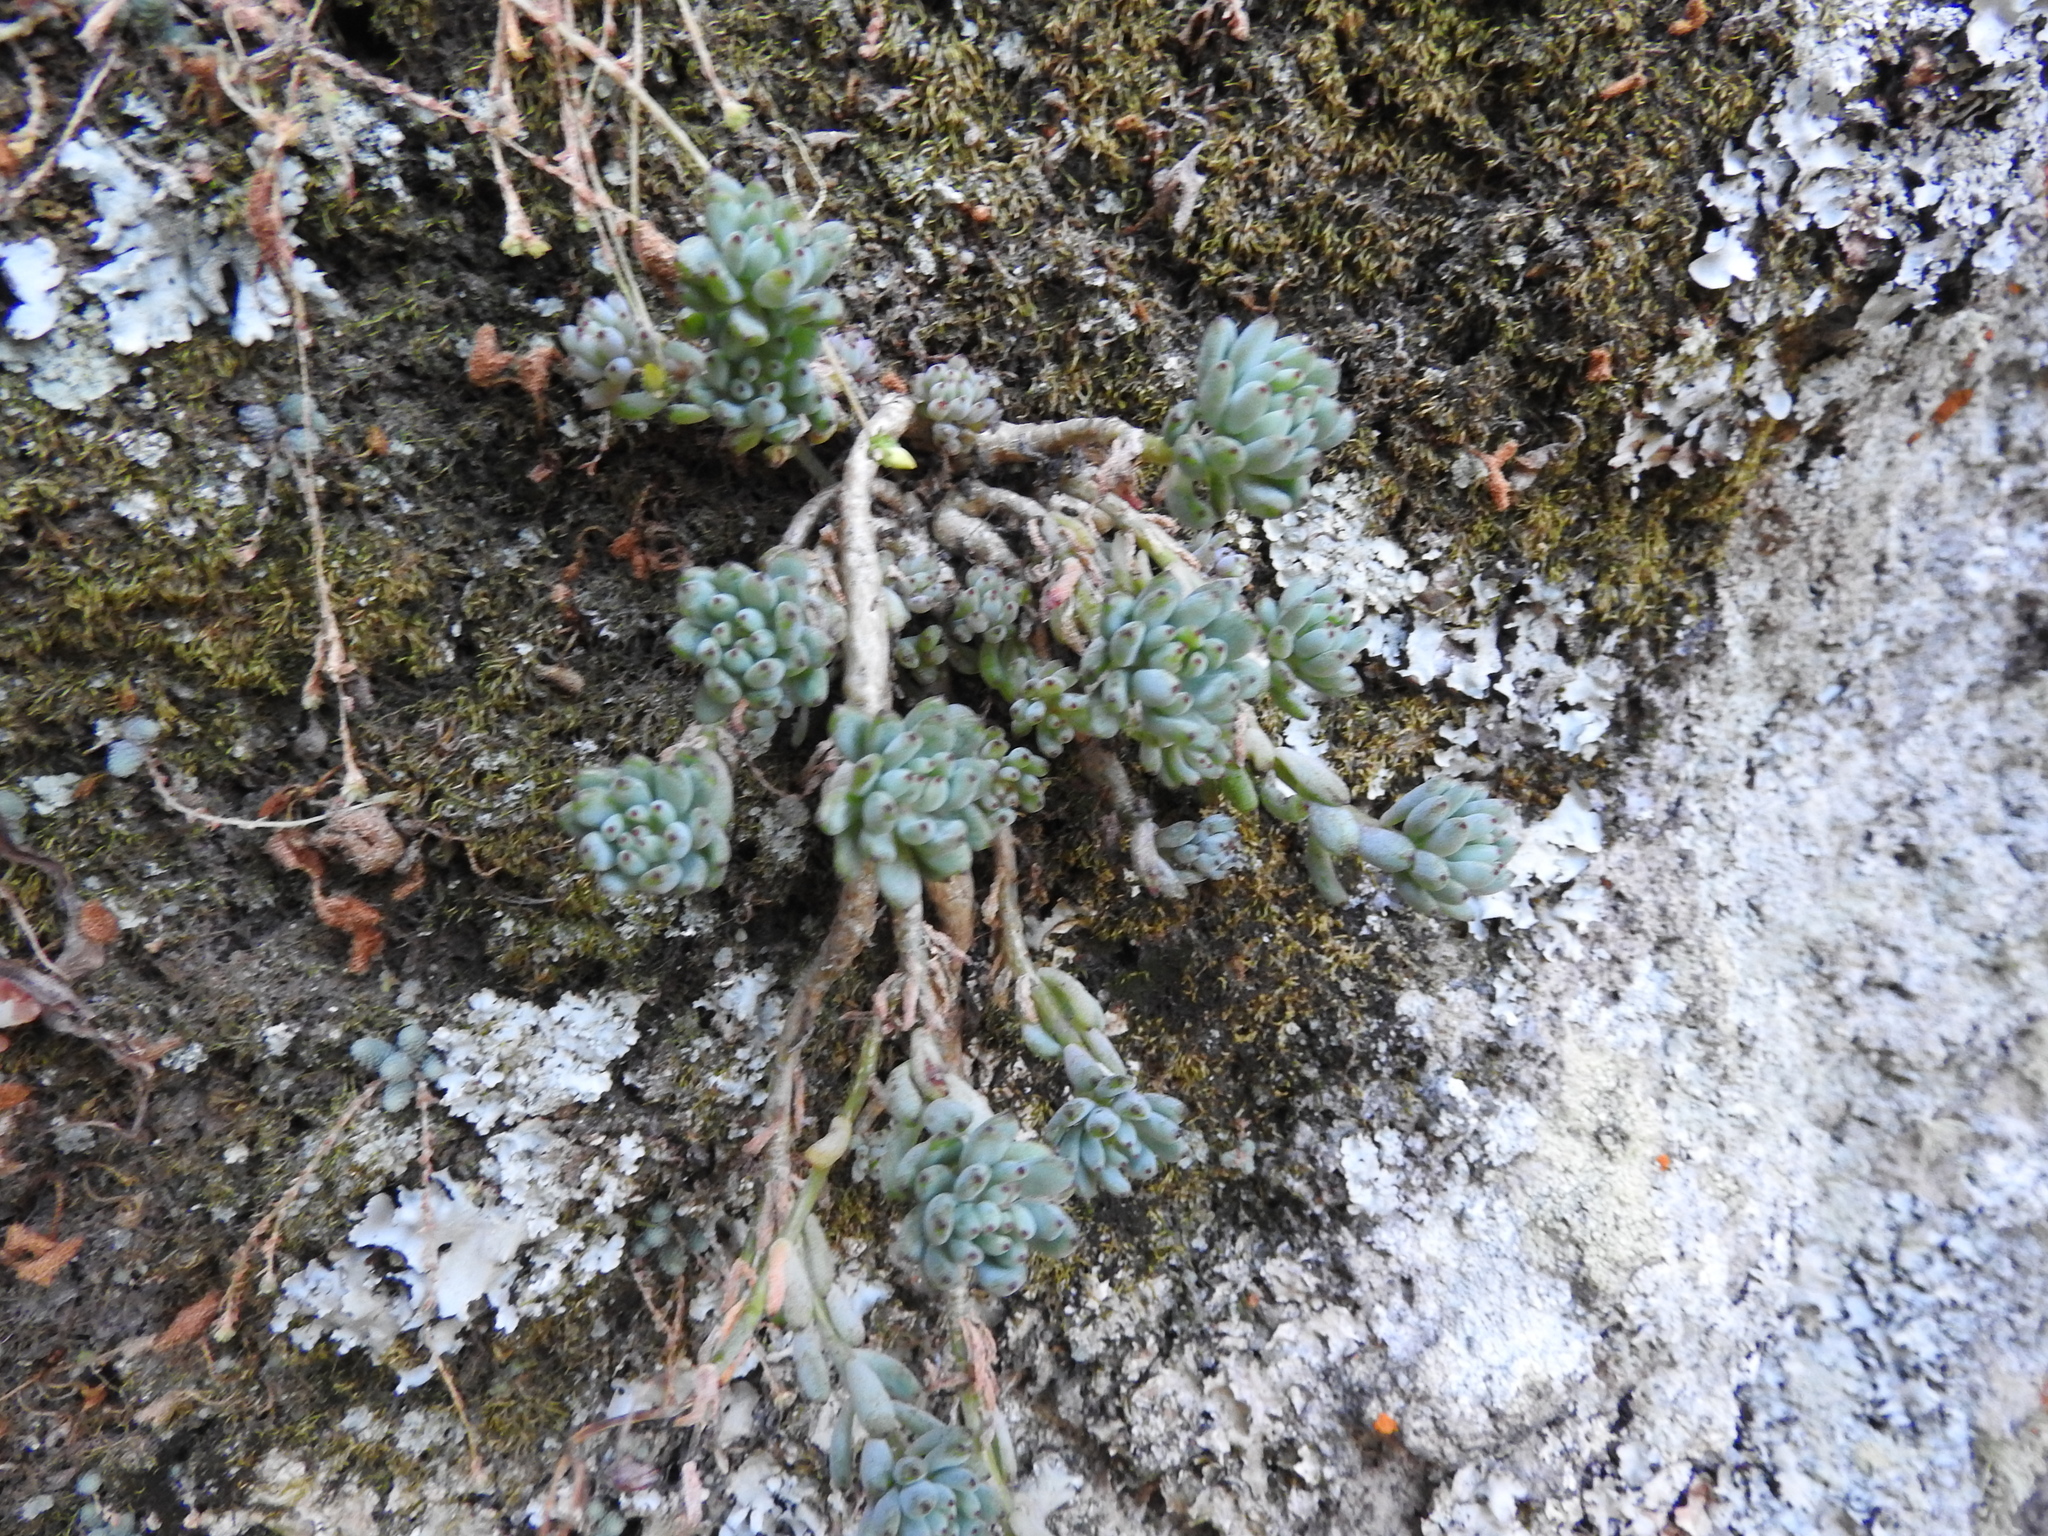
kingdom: Plantae
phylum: Tracheophyta
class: Magnoliopsida
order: Saxifragales
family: Crassulaceae
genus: Graptopetalum
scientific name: Graptopetalum pachyphyllum
